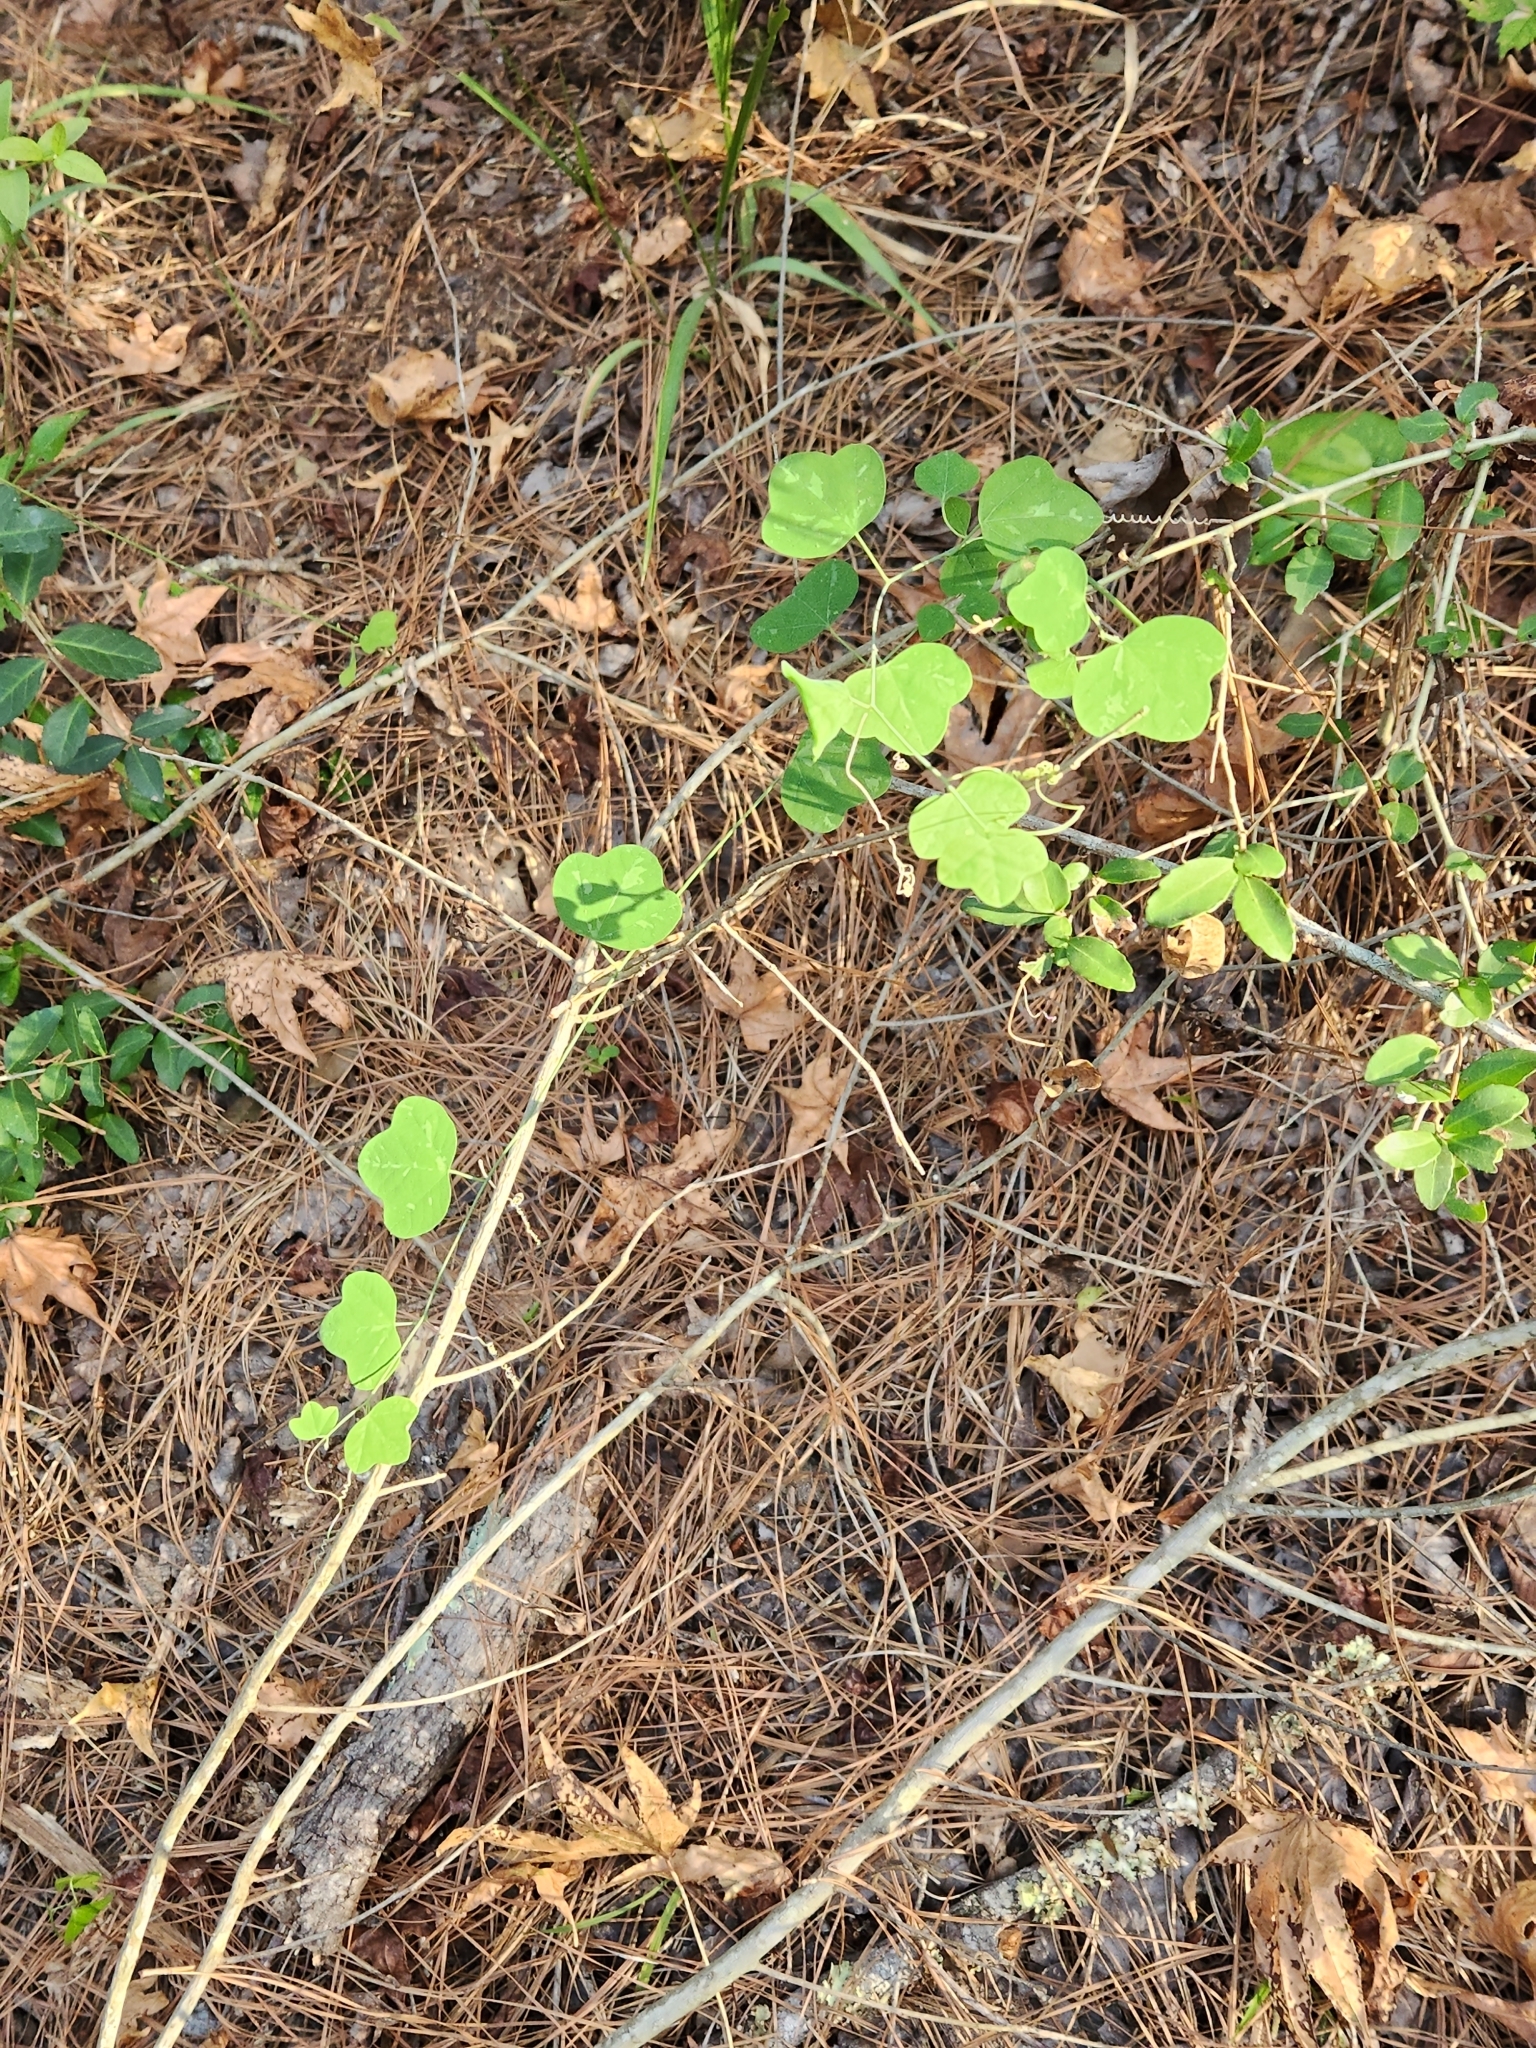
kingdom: Plantae
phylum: Tracheophyta
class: Magnoliopsida
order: Malpighiales
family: Passifloraceae
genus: Passiflora
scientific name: Passiflora lutea
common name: Yellow passionflower
